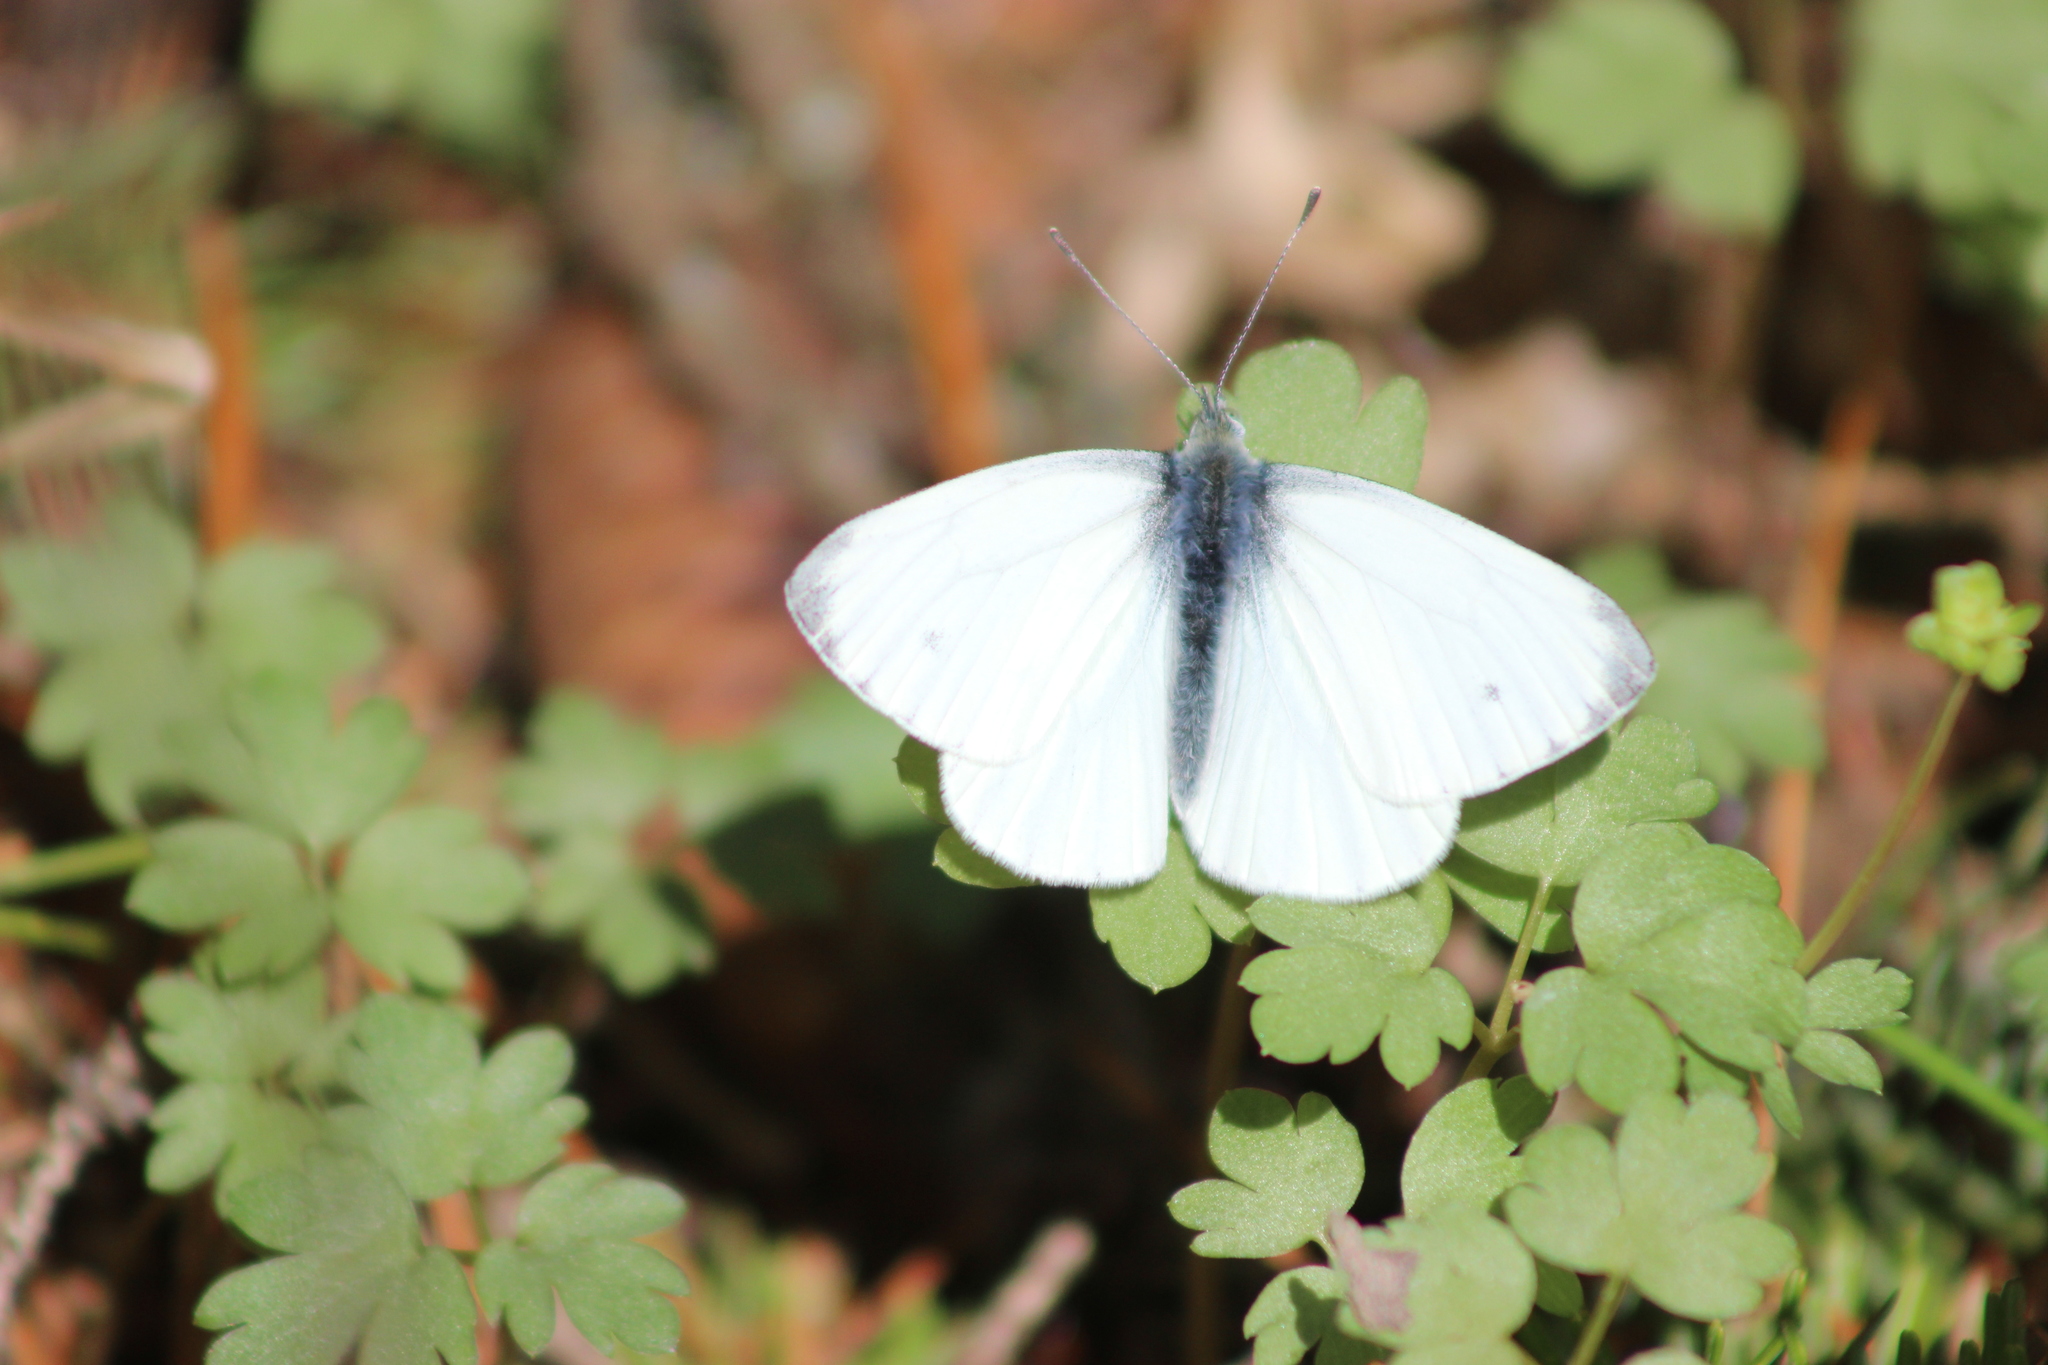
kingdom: Animalia
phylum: Arthropoda
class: Insecta
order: Lepidoptera
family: Pieridae
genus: Pieris
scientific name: Pieris napi
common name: Green-veined white
